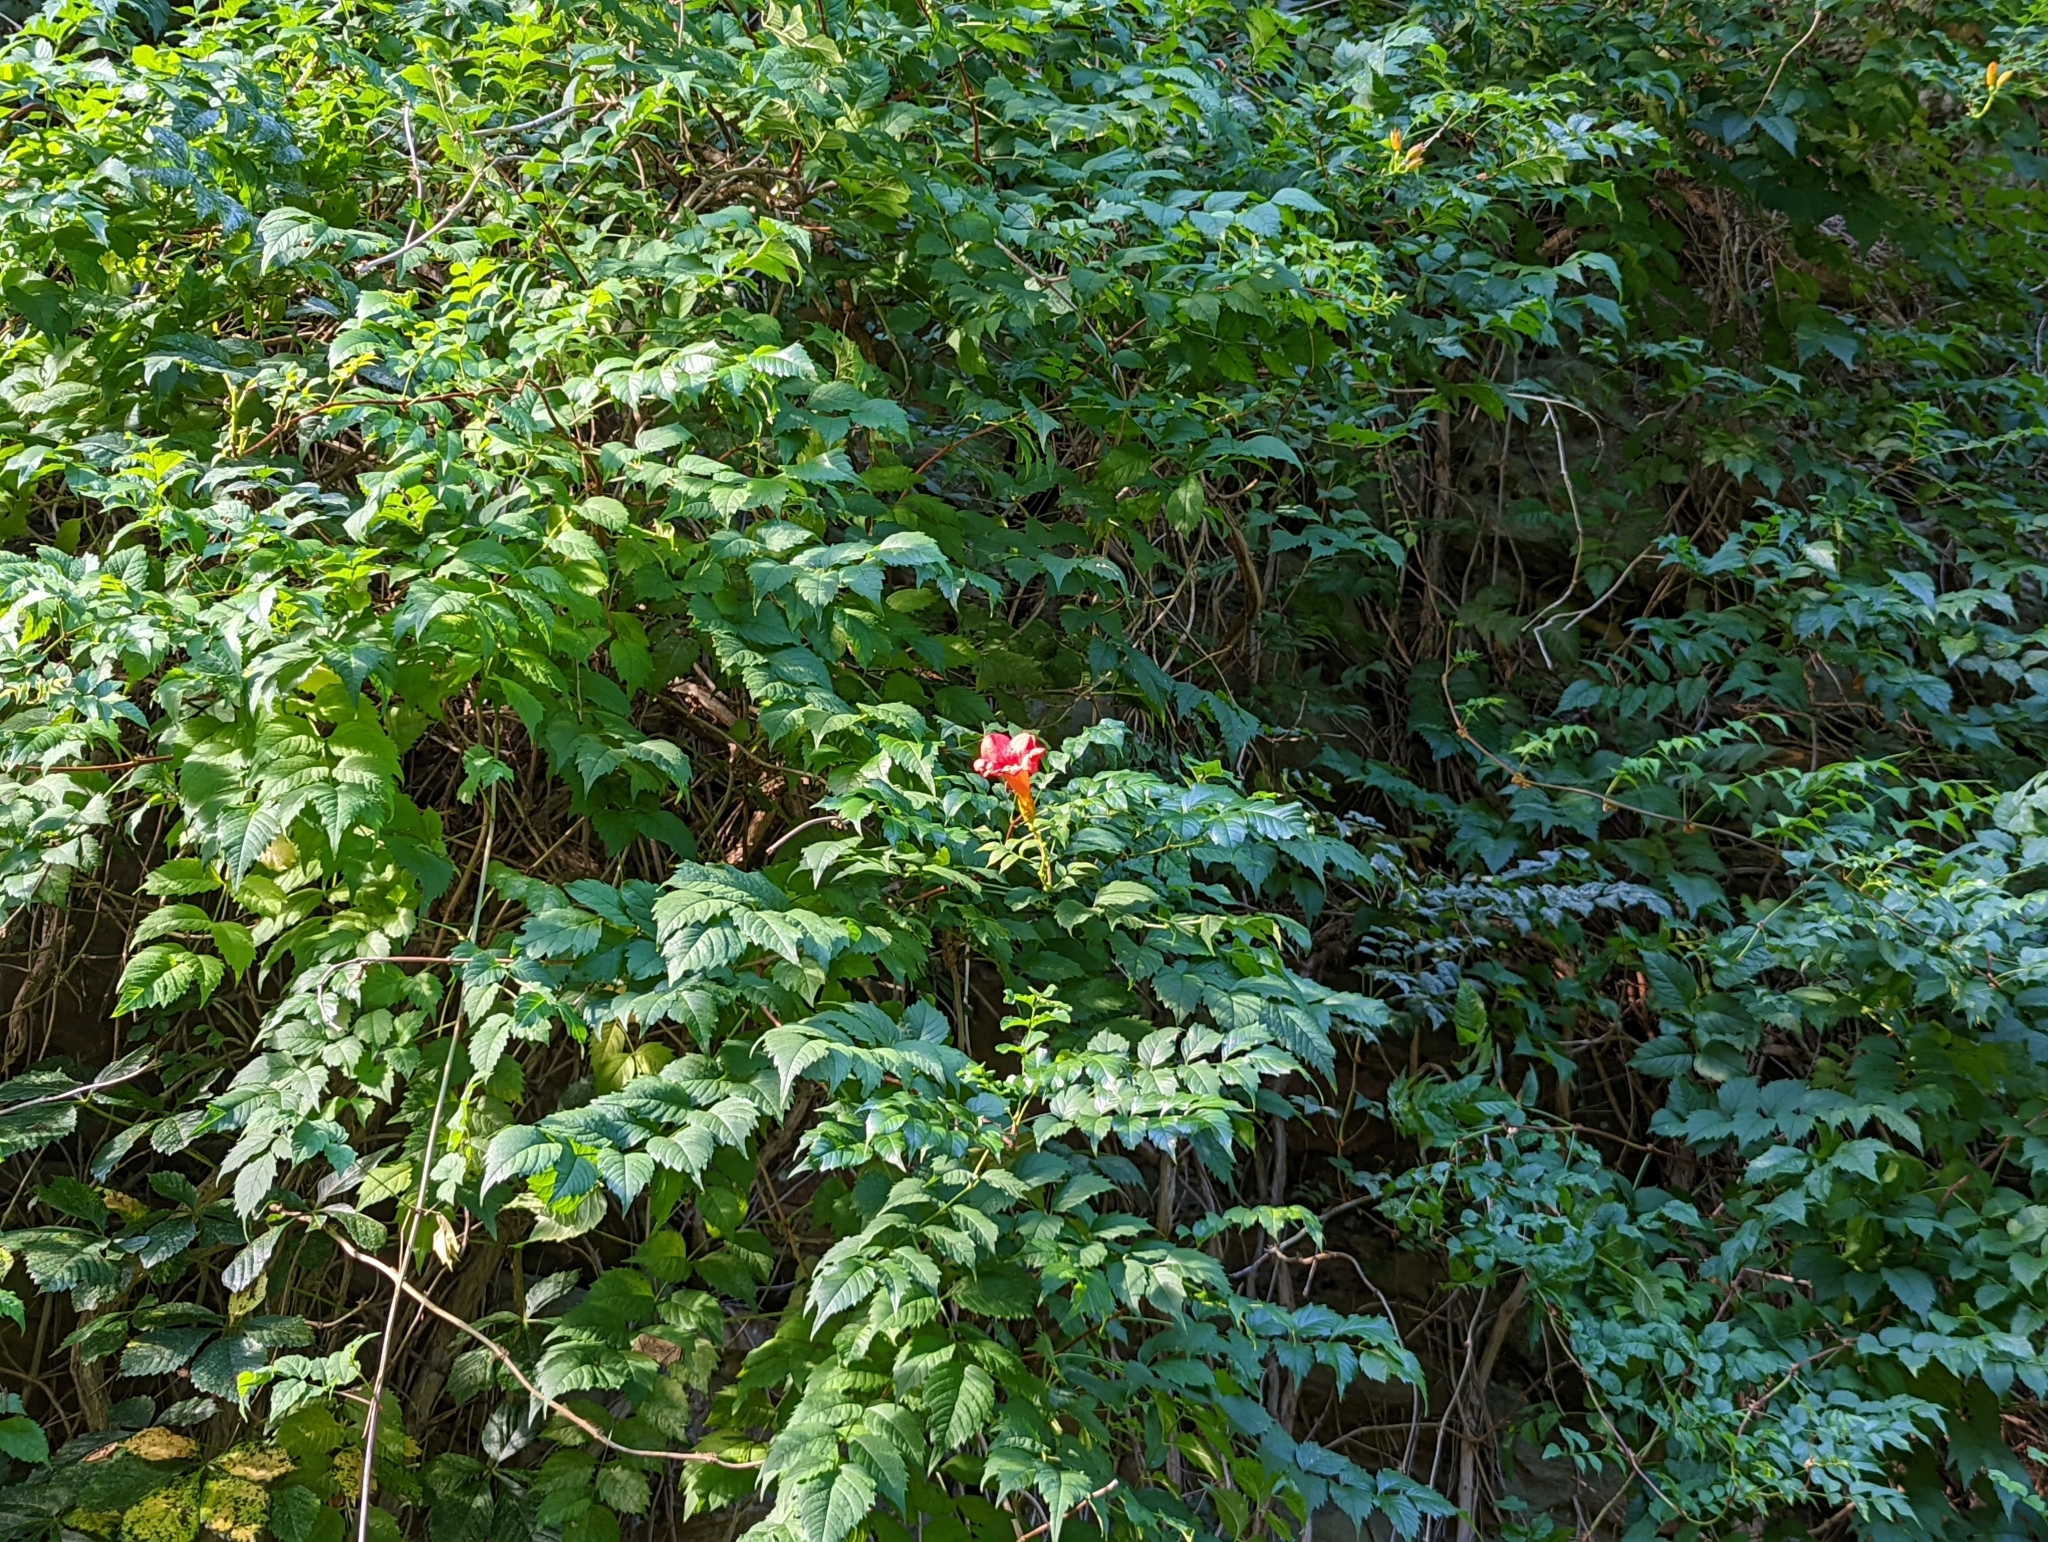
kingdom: Plantae
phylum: Tracheophyta
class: Magnoliopsida
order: Lamiales
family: Bignoniaceae
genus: Campsis
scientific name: Campsis radicans
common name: Trumpet-creeper
